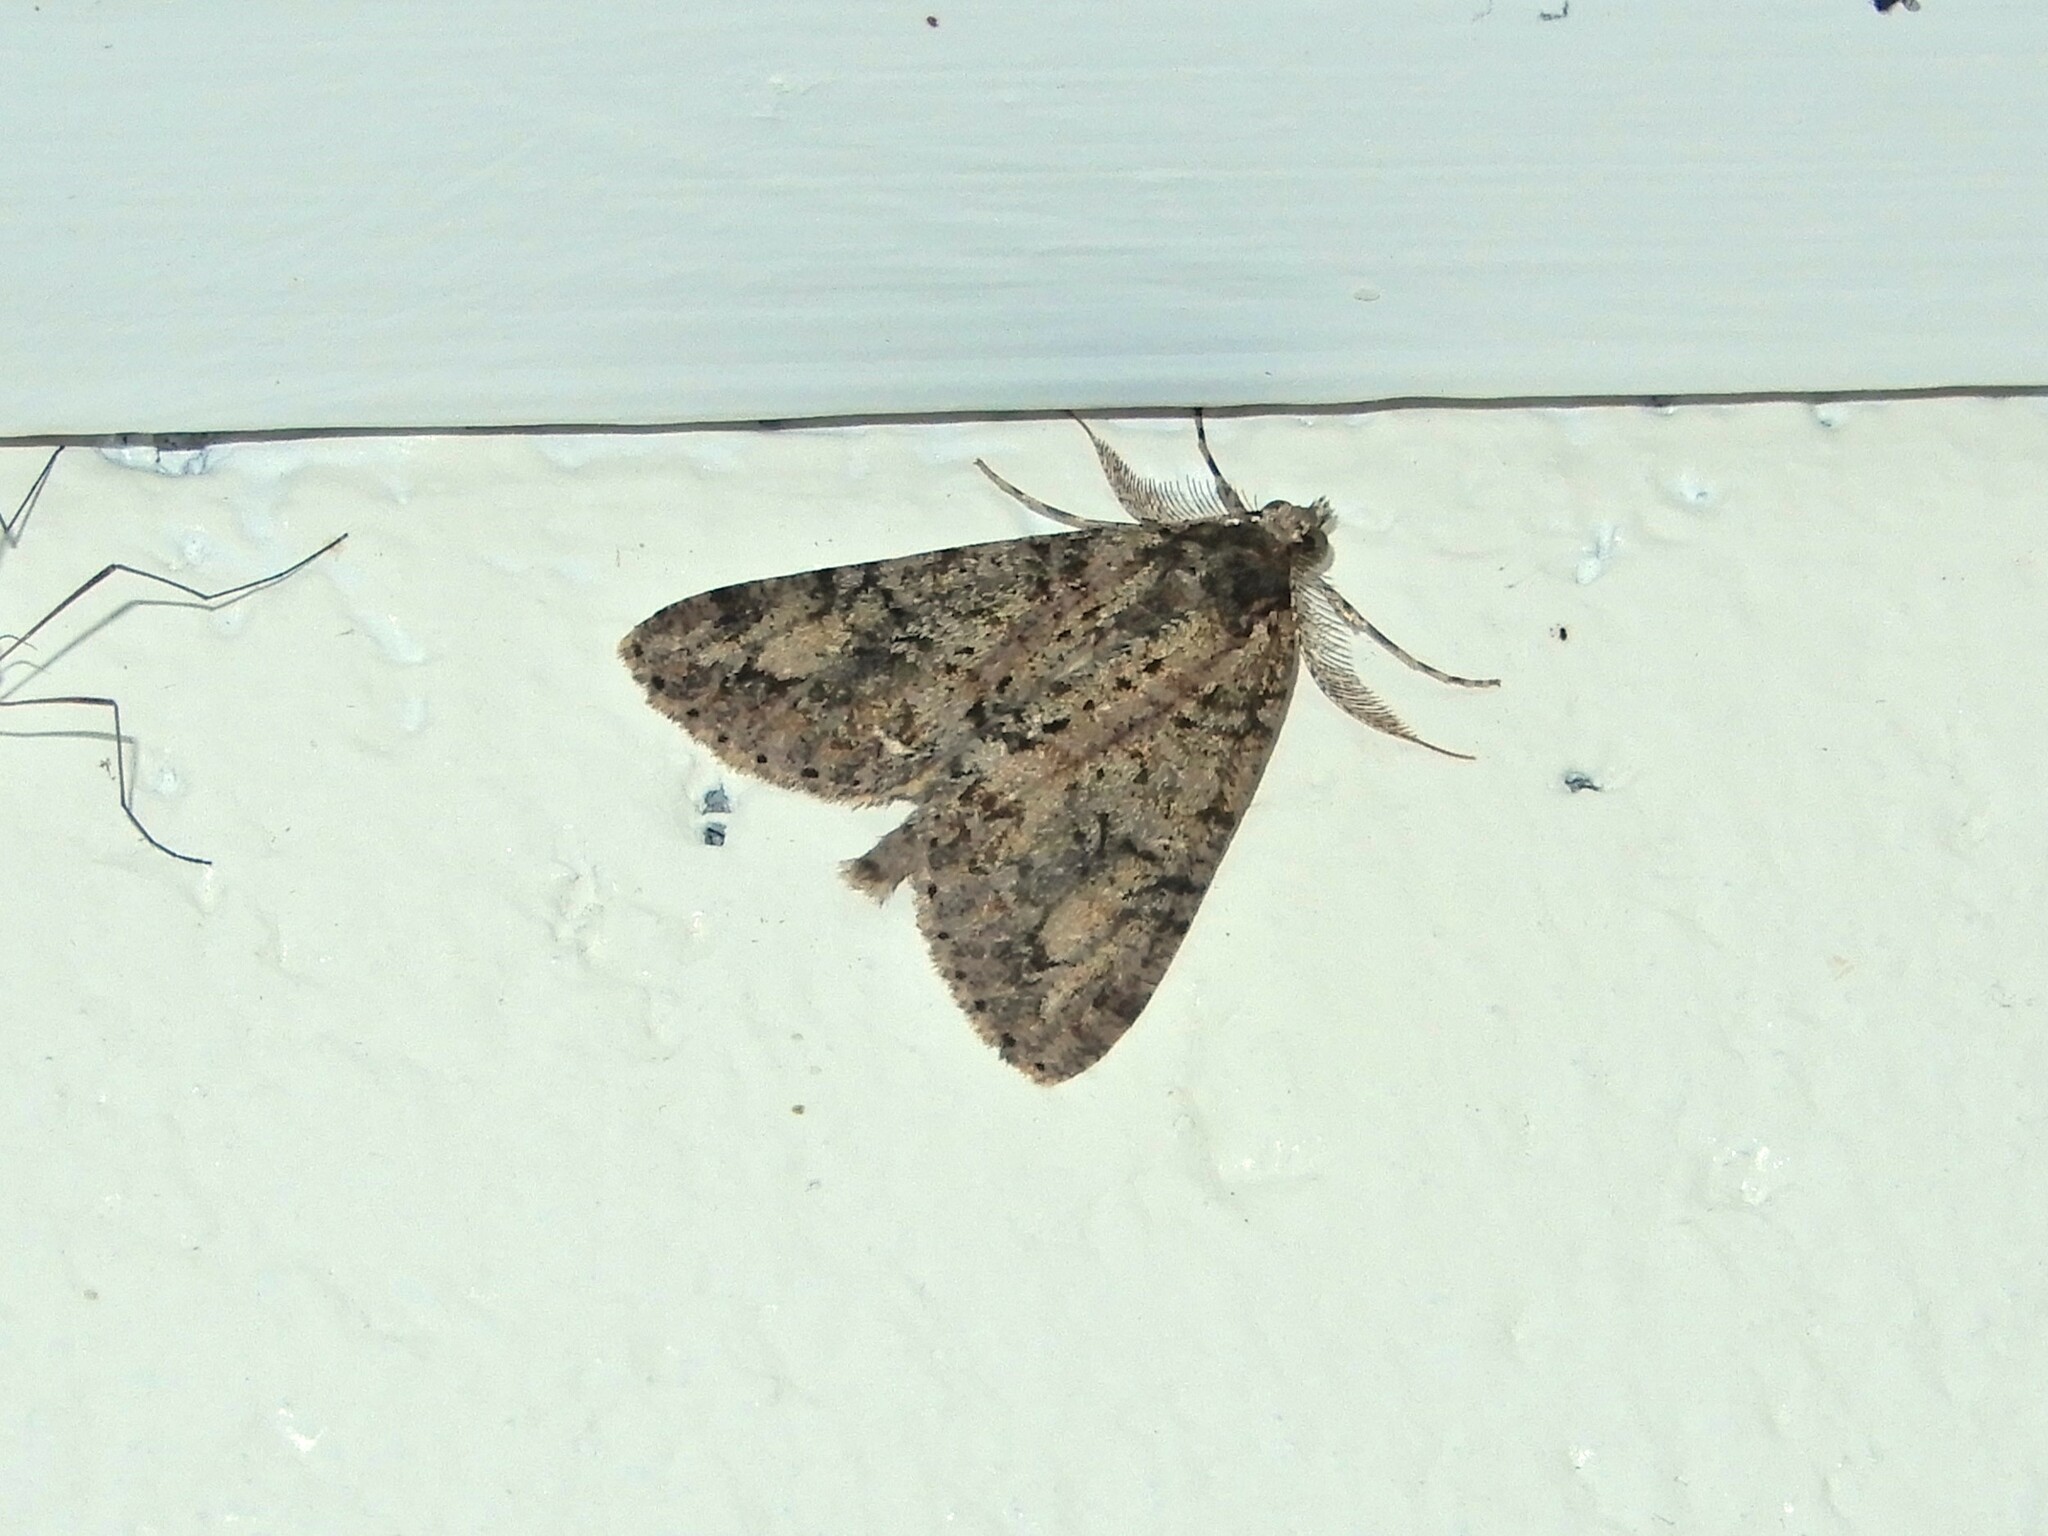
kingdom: Animalia
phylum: Arthropoda
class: Insecta
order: Lepidoptera
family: Geometridae
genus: Pseudocoremia
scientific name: Pseudocoremia suavis
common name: Common forest looper
